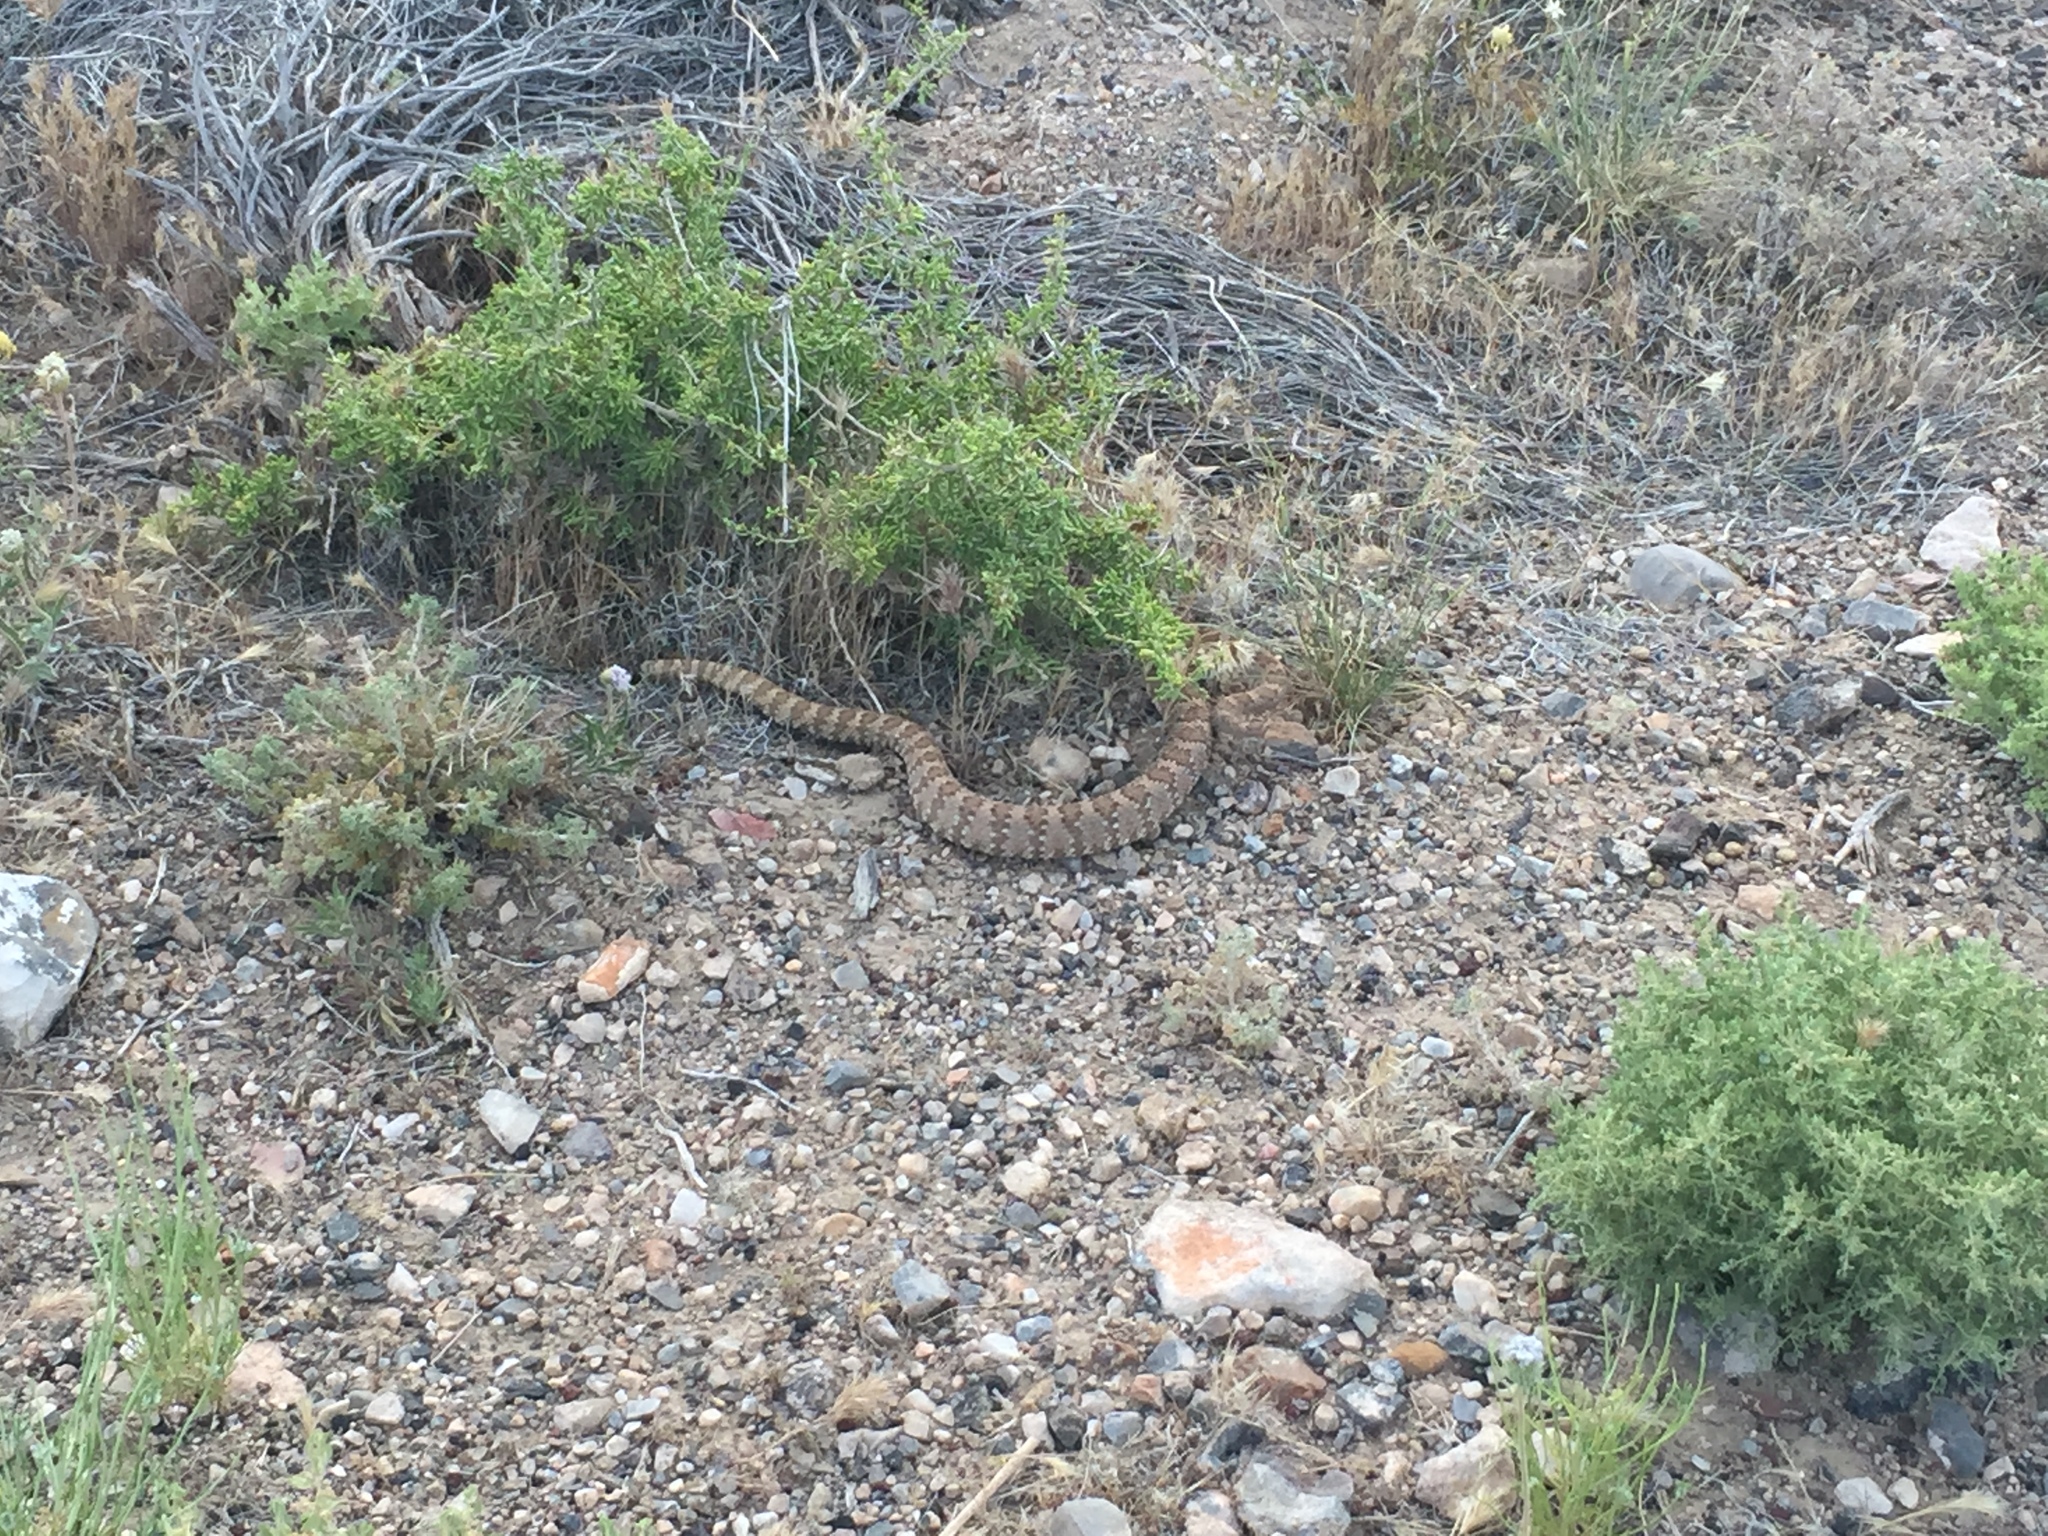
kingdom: Animalia
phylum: Chordata
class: Squamata
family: Viperidae
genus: Crotalus
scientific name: Crotalus stephensi
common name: Panamint rattlesnake
